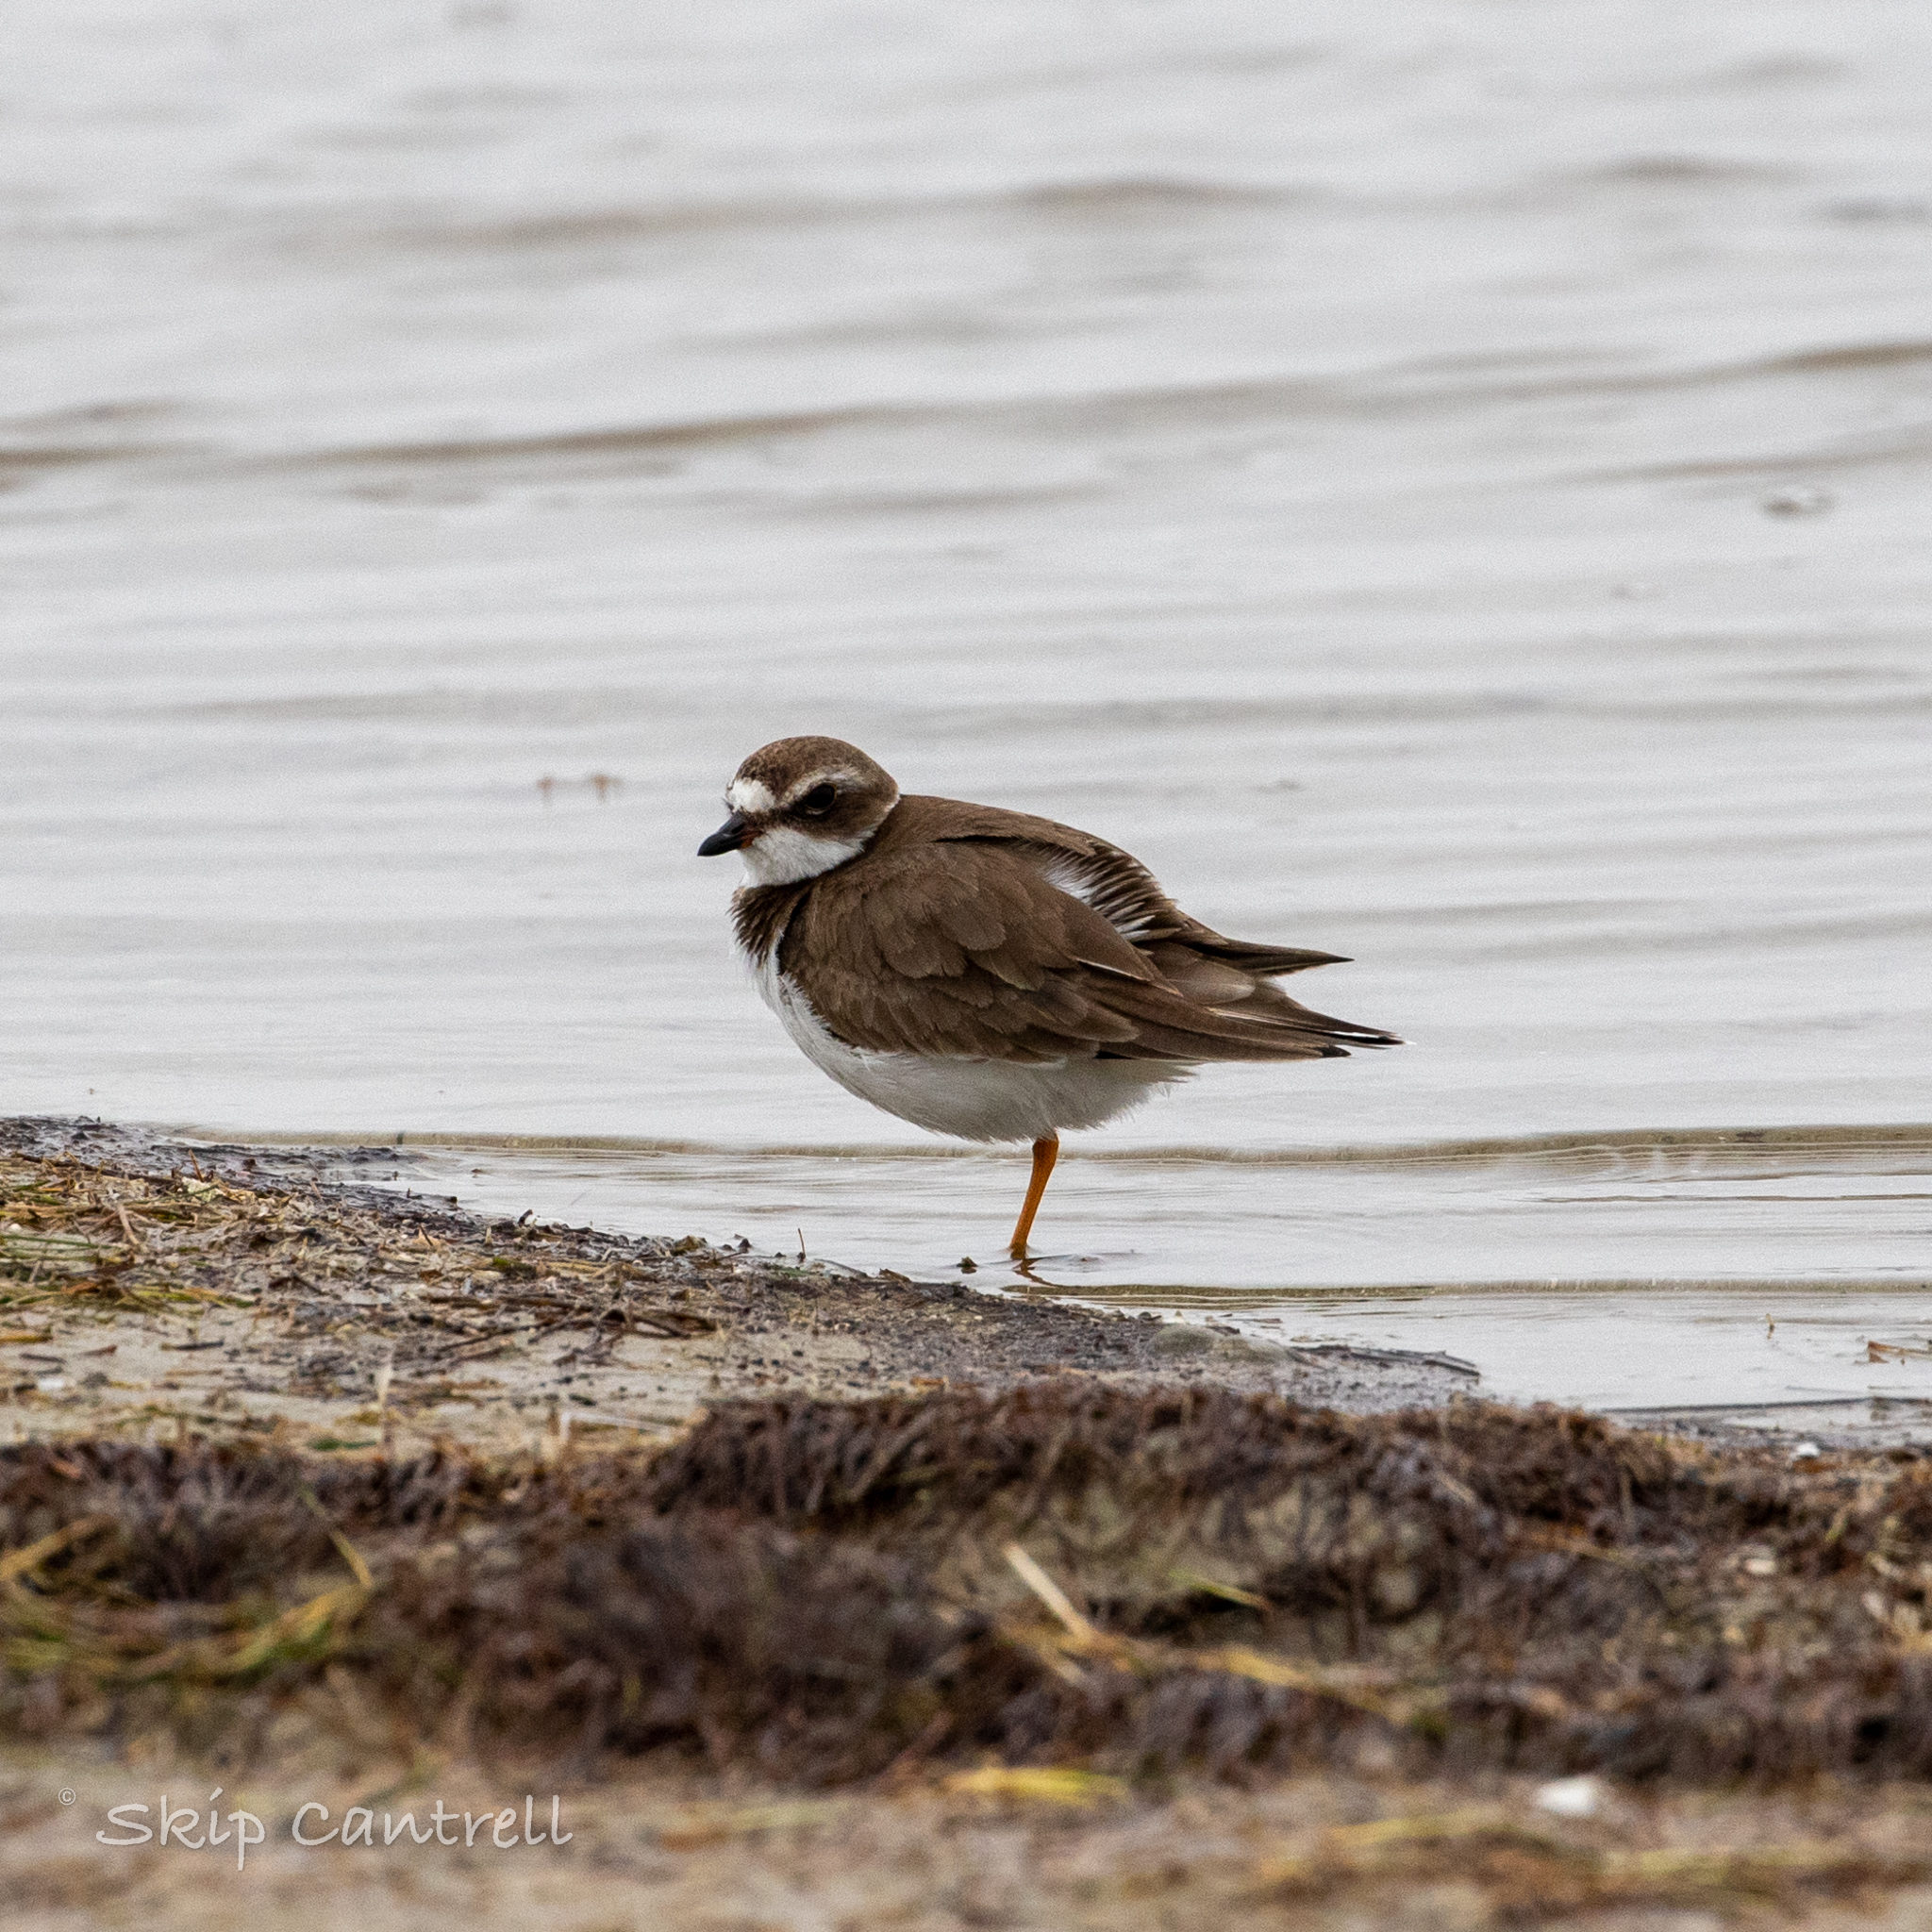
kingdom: Animalia
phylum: Chordata
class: Aves
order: Charadriiformes
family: Charadriidae
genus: Charadrius
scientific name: Charadrius semipalmatus
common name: Semipalmated plover
